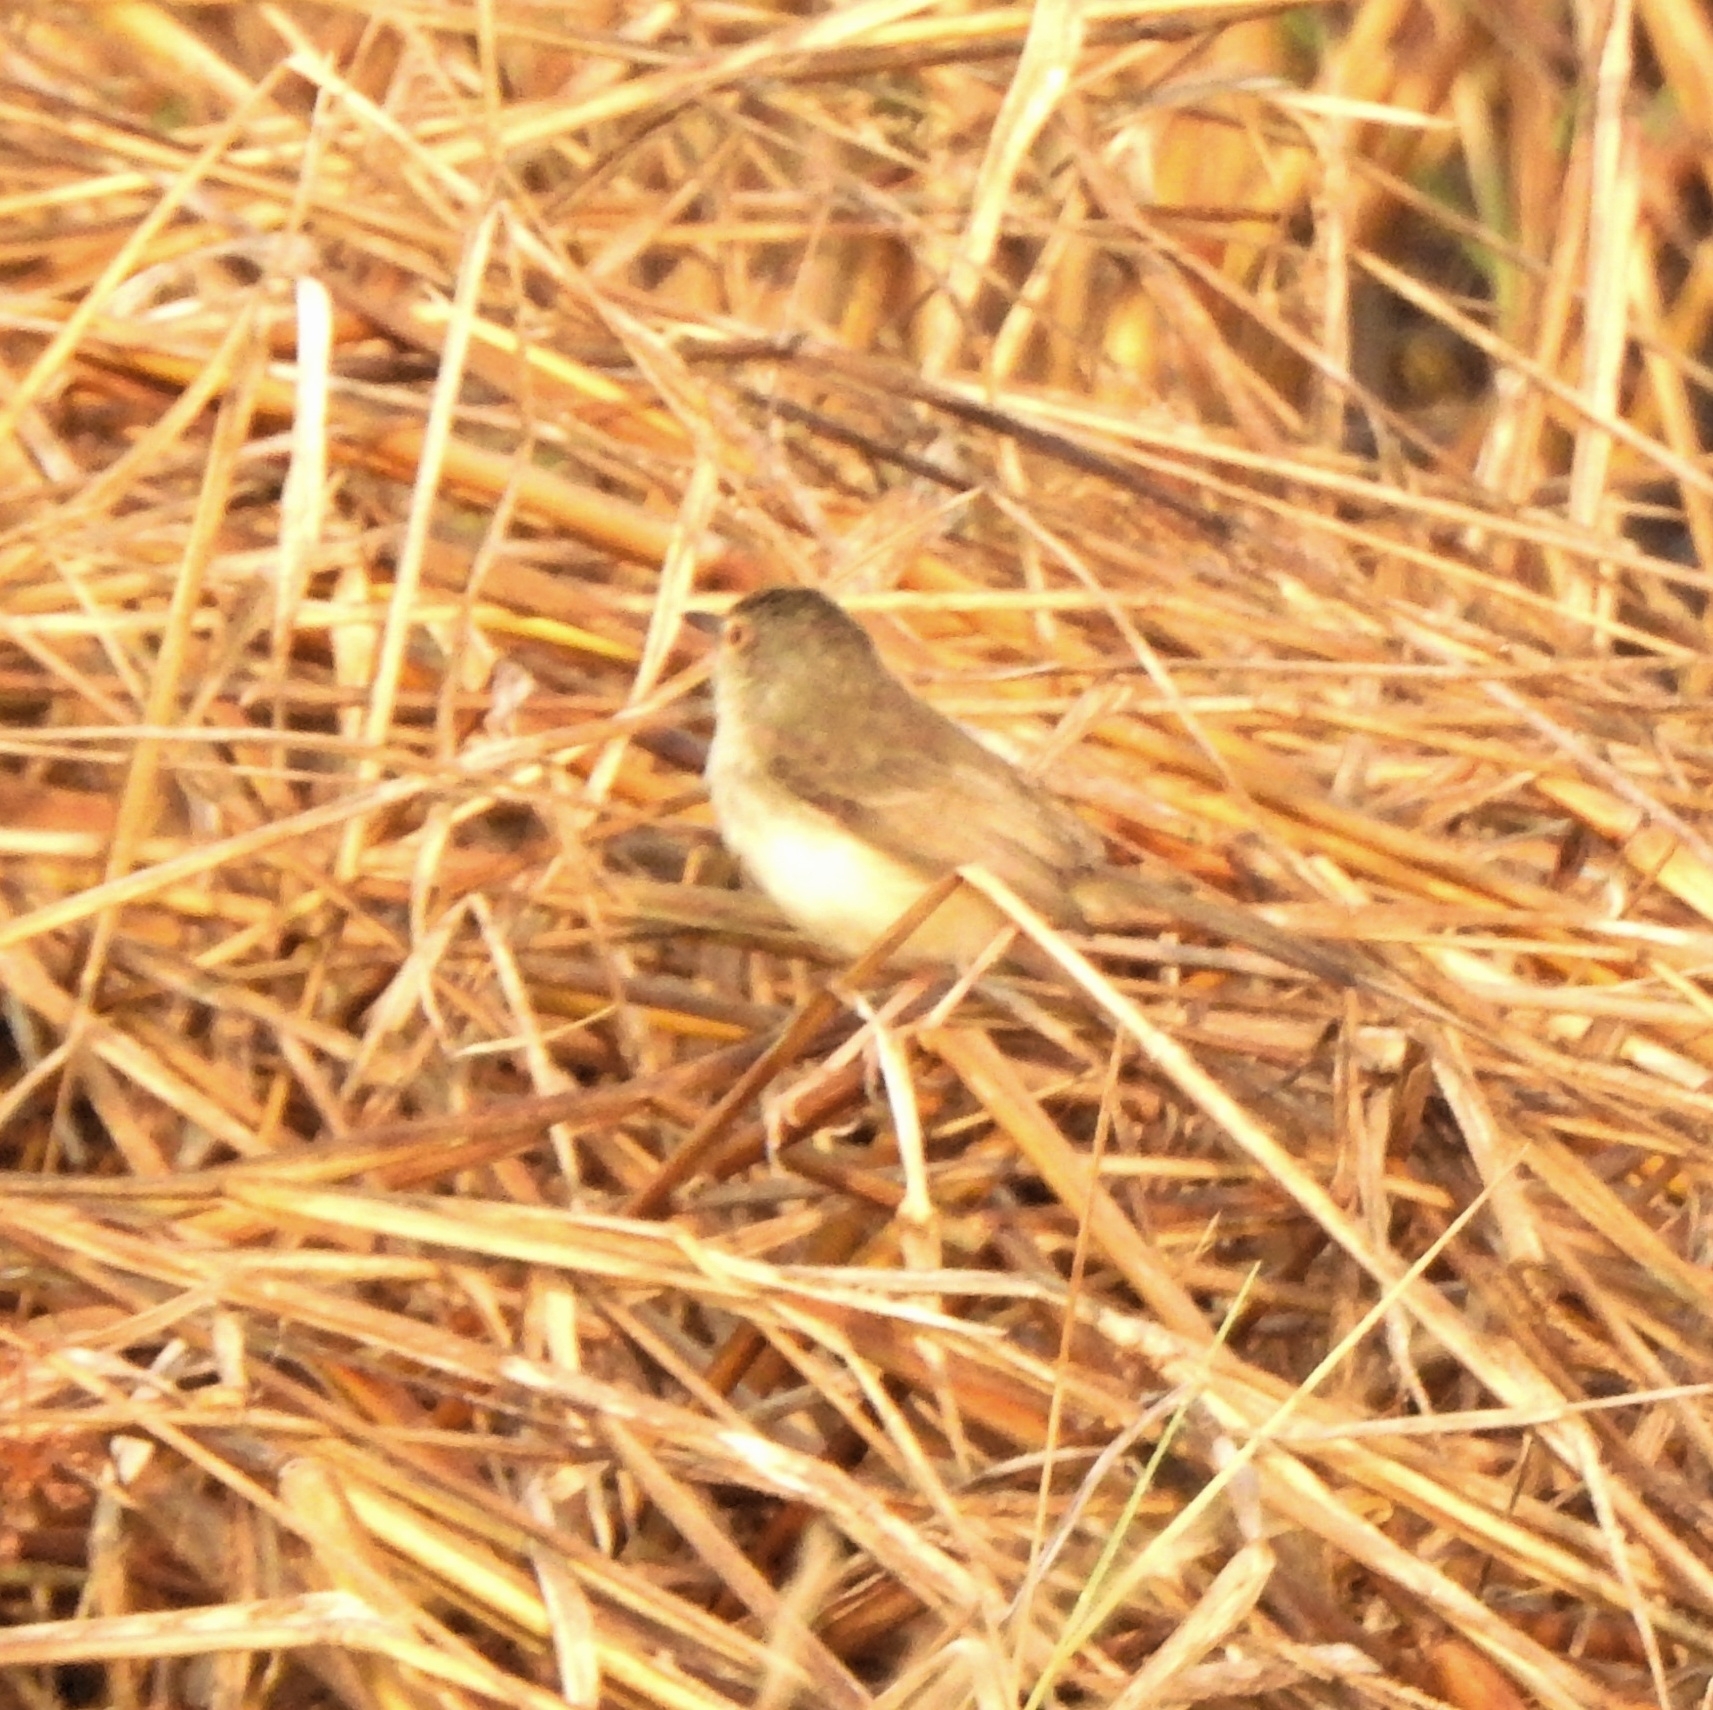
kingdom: Animalia
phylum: Chordata
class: Aves
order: Passeriformes
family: Cisticolidae
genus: Prinia
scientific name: Prinia inornata
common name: Plain prinia
